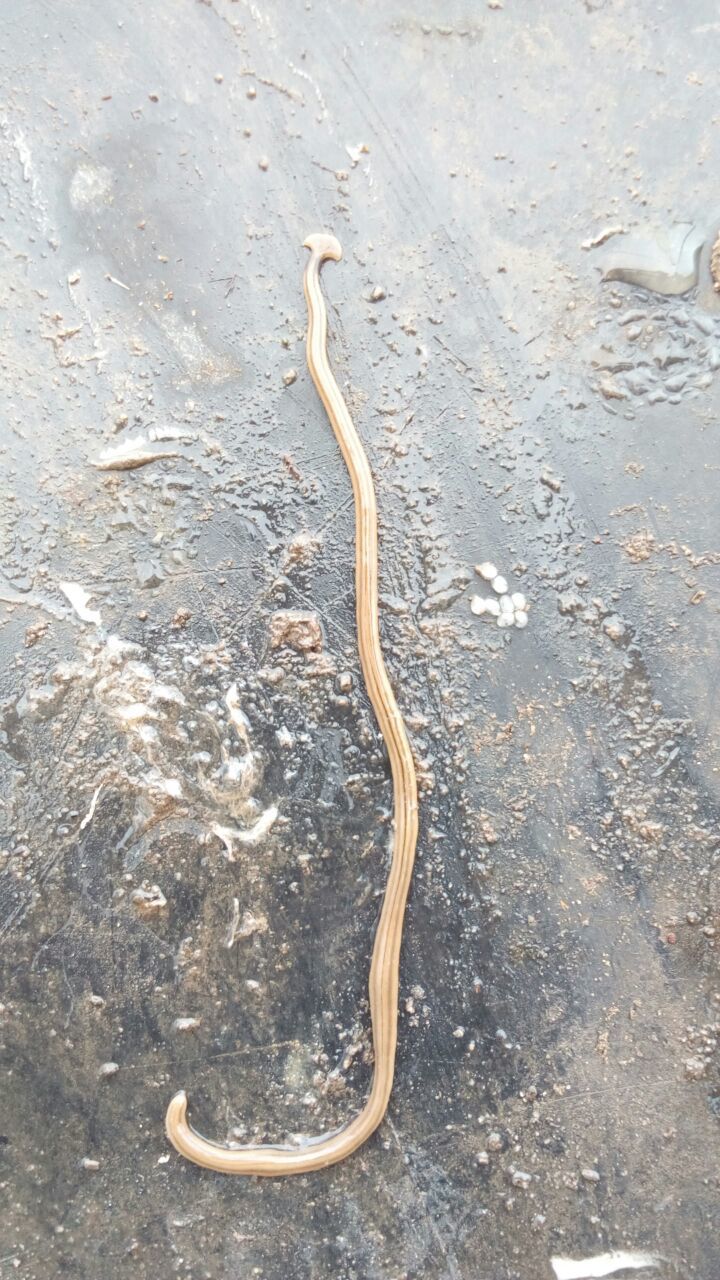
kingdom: Animalia
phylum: Platyhelminthes
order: Tricladida
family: Geoplanidae
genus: Bipalium
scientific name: Bipalium kewense
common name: Hammerhead flatworm
